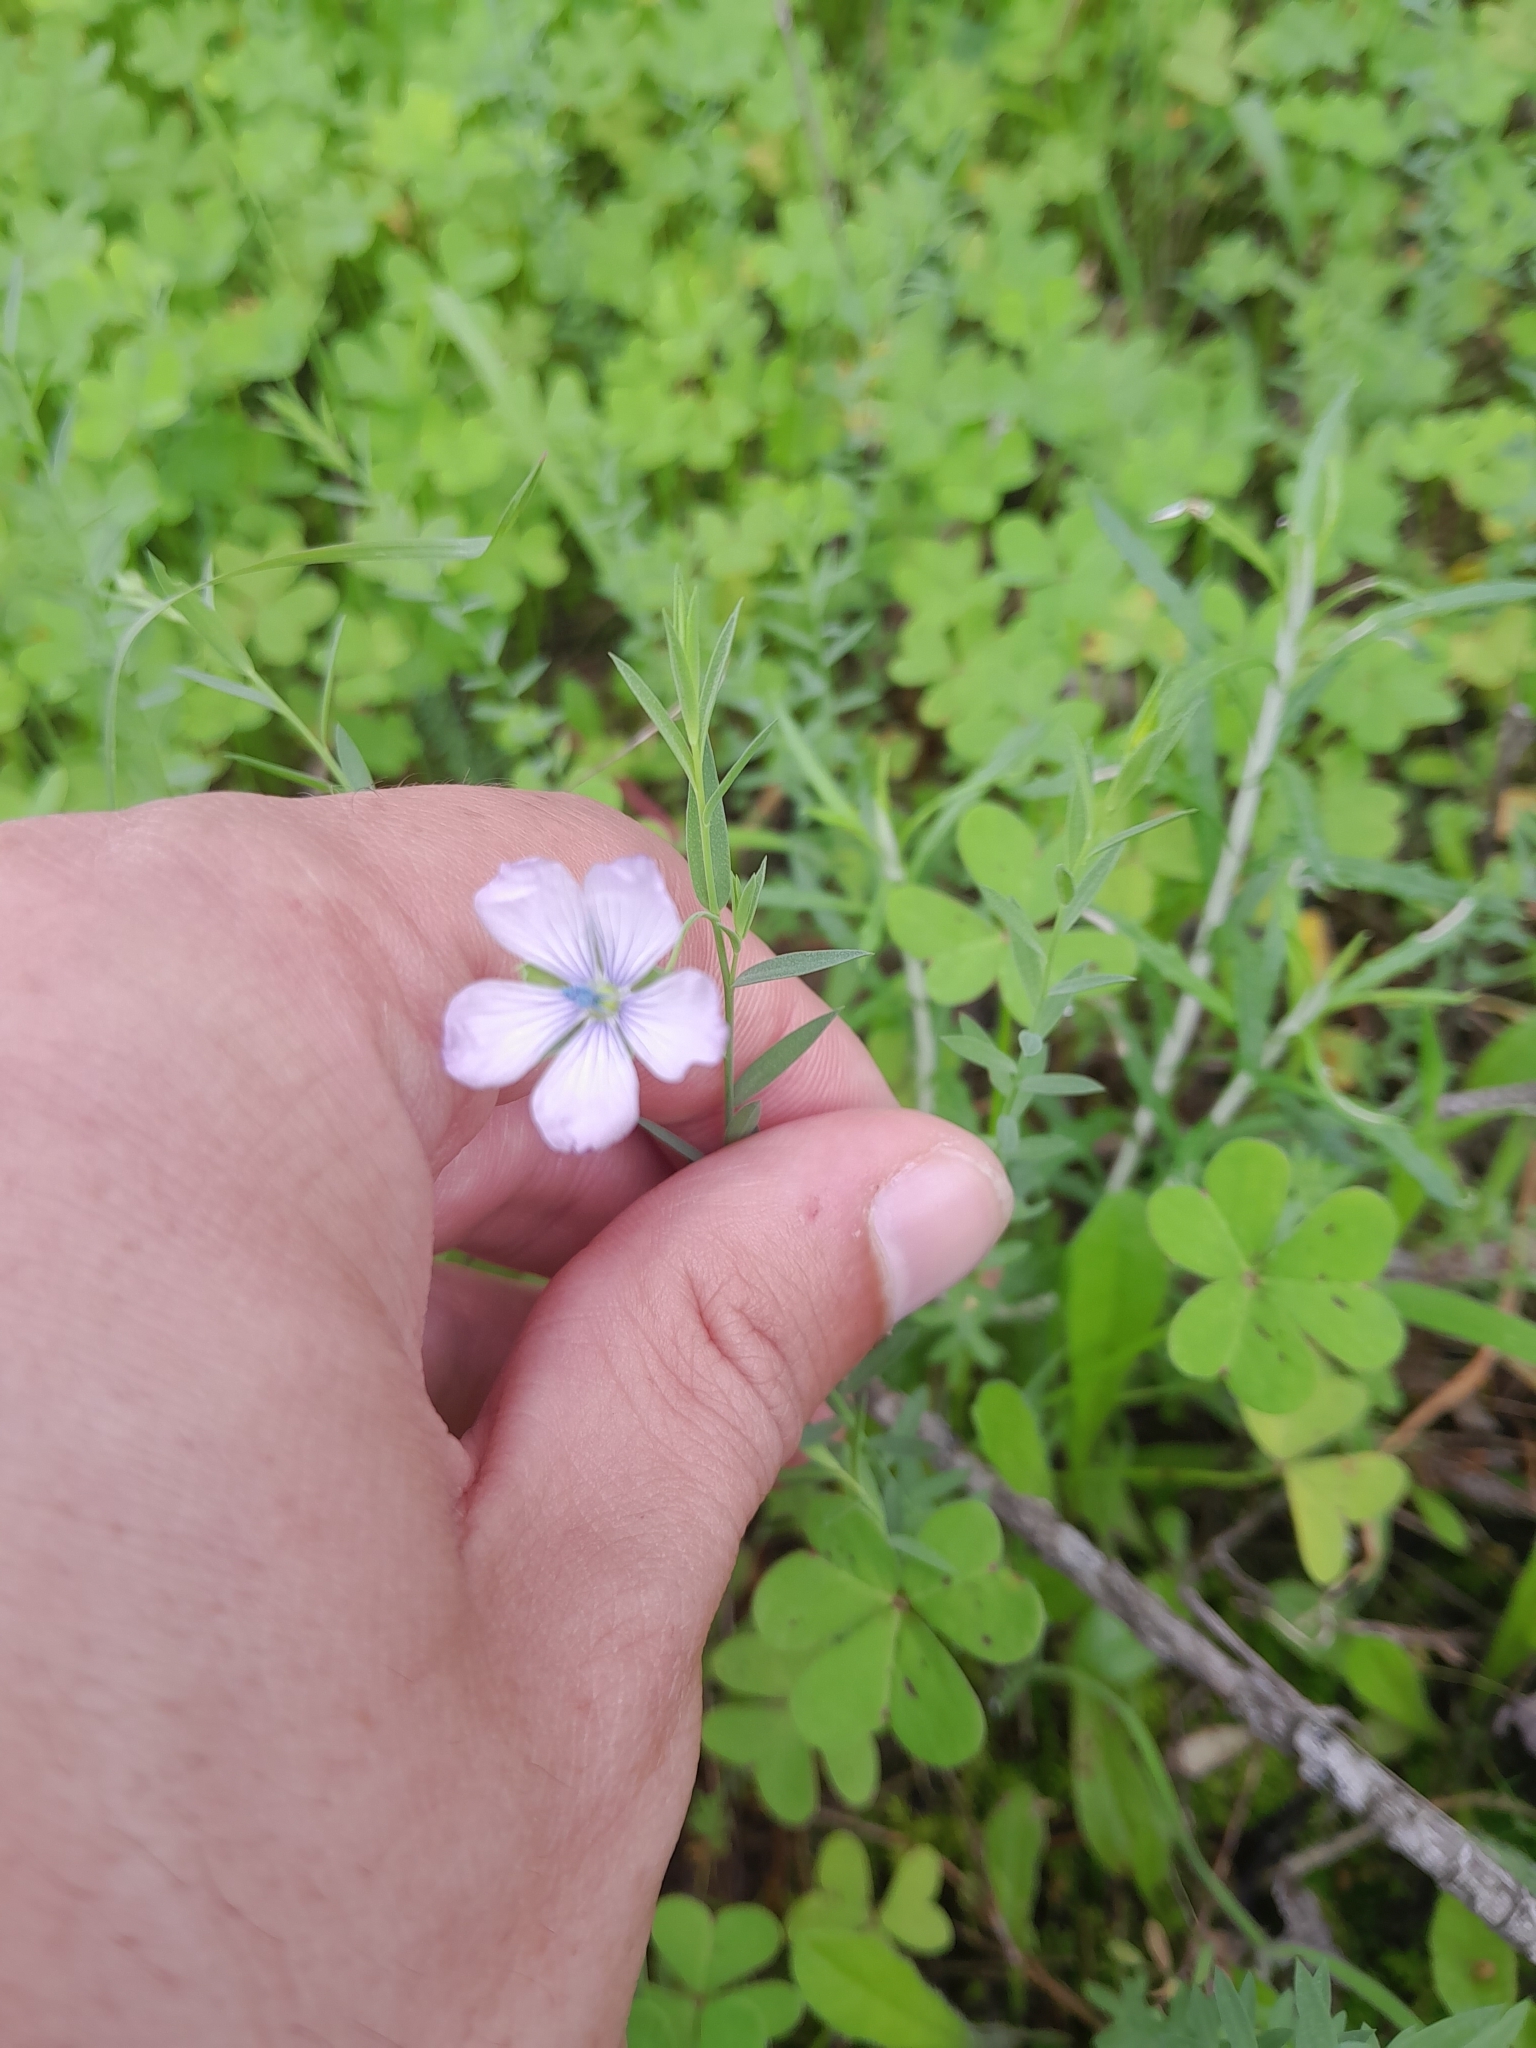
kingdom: Plantae
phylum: Tracheophyta
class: Magnoliopsida
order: Malpighiales
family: Linaceae
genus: Linum
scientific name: Linum bienne
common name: Pale flax
